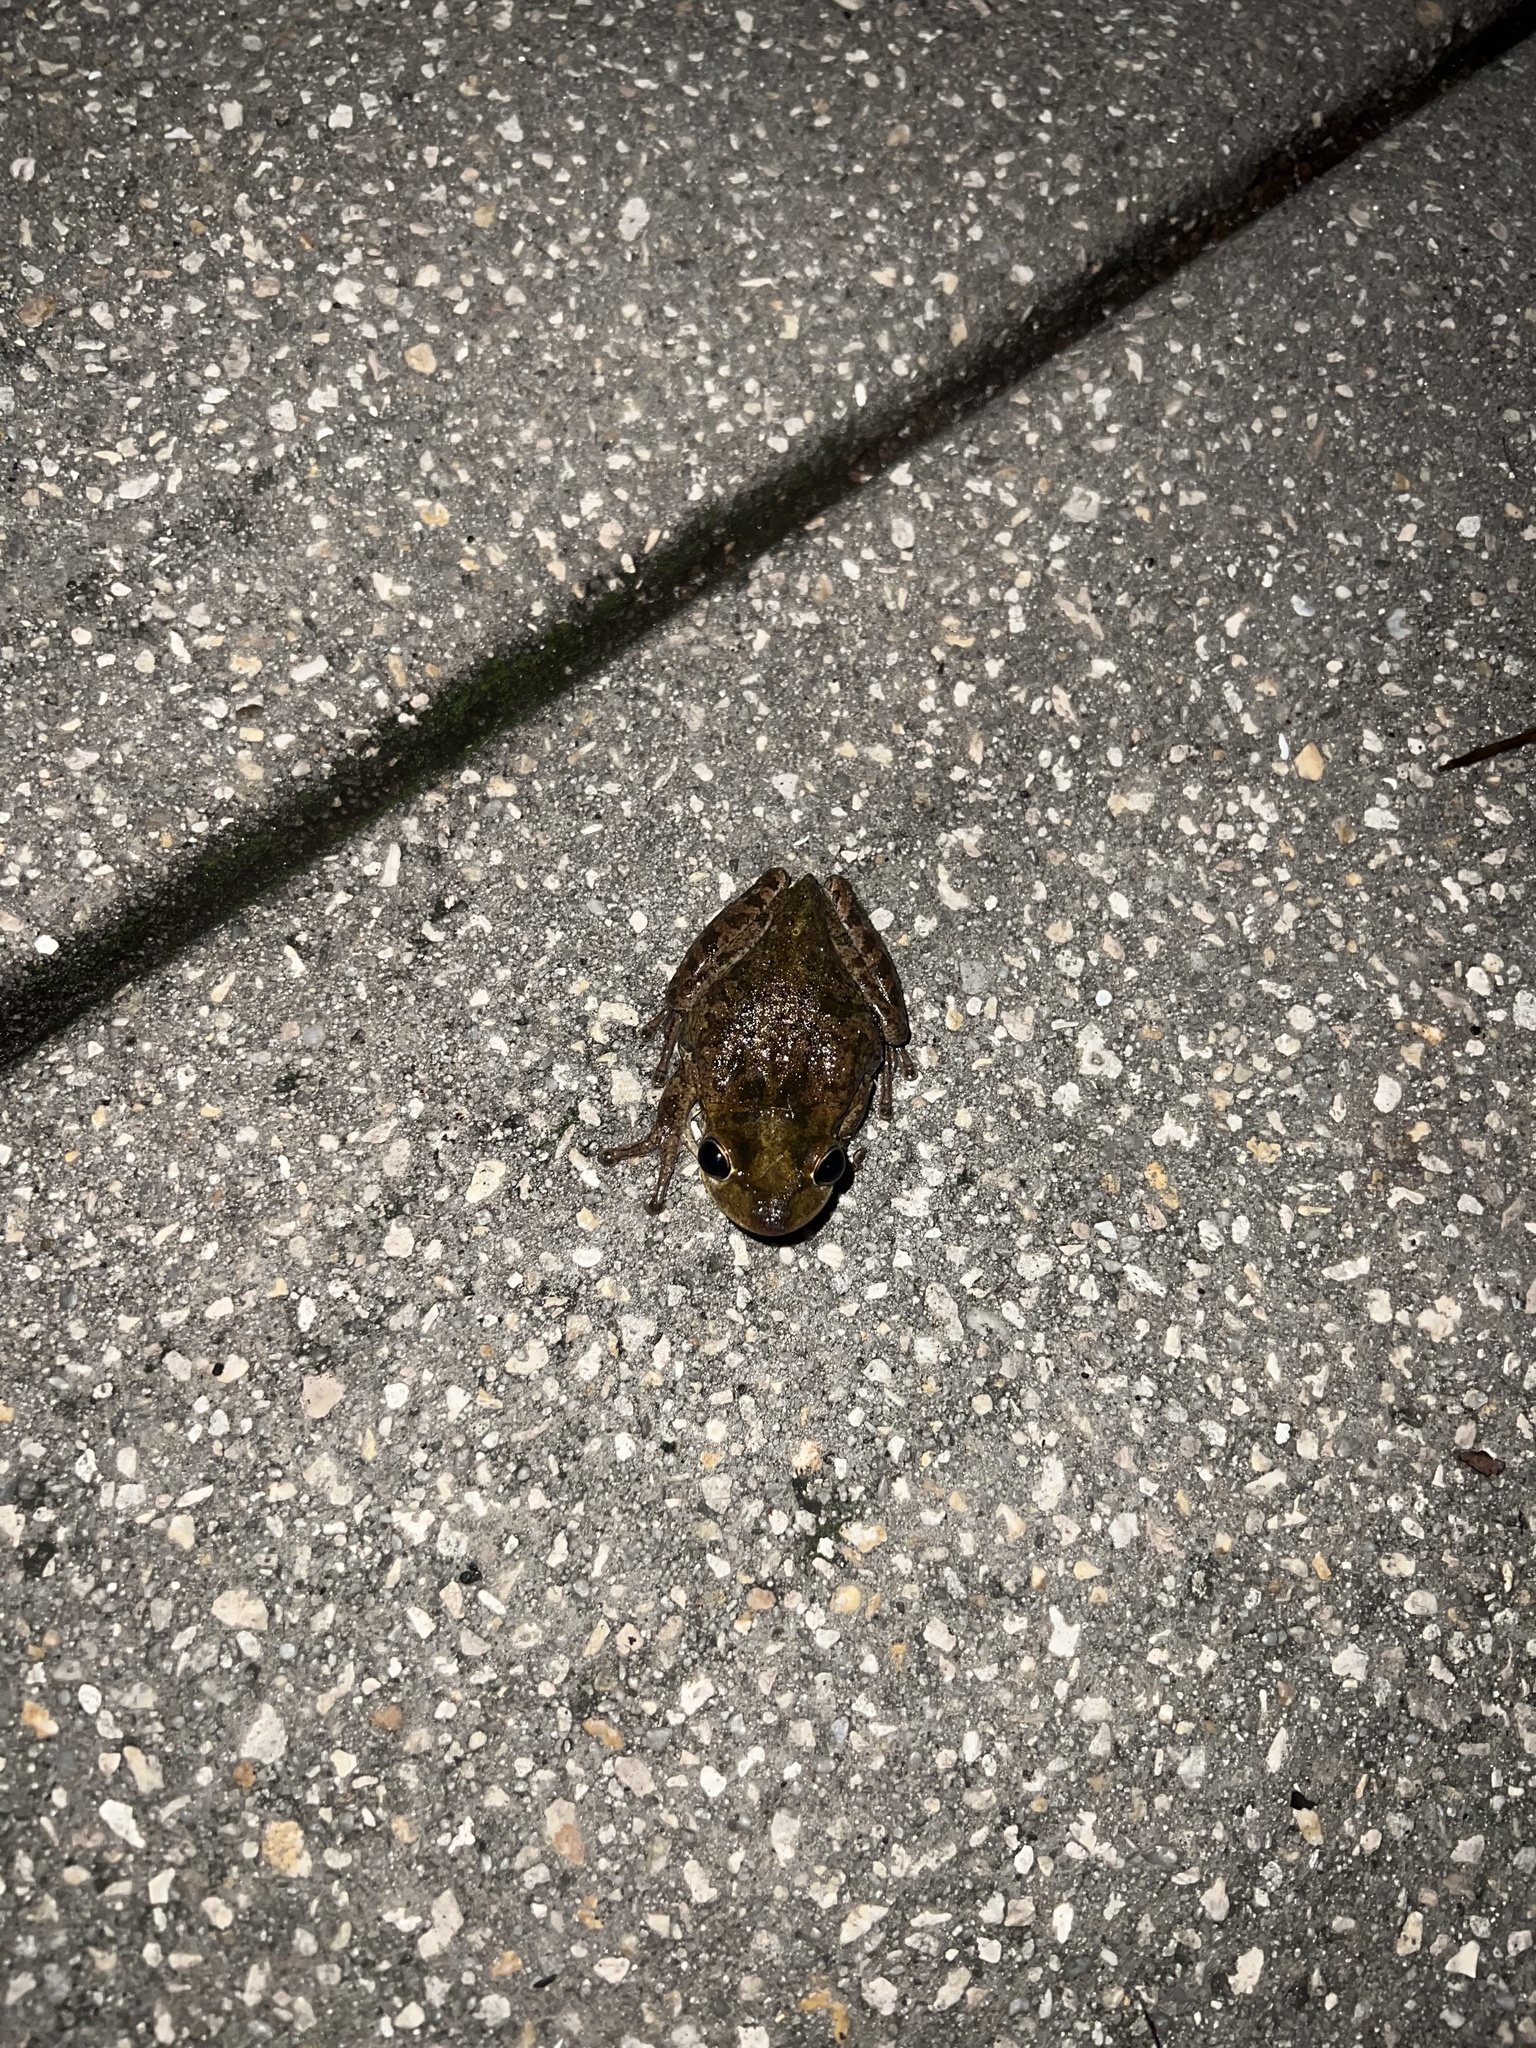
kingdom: Animalia
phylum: Chordata
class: Amphibia
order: Anura
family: Hylidae
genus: Osteopilus
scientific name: Osteopilus septentrionalis
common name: Cuban treefrog
